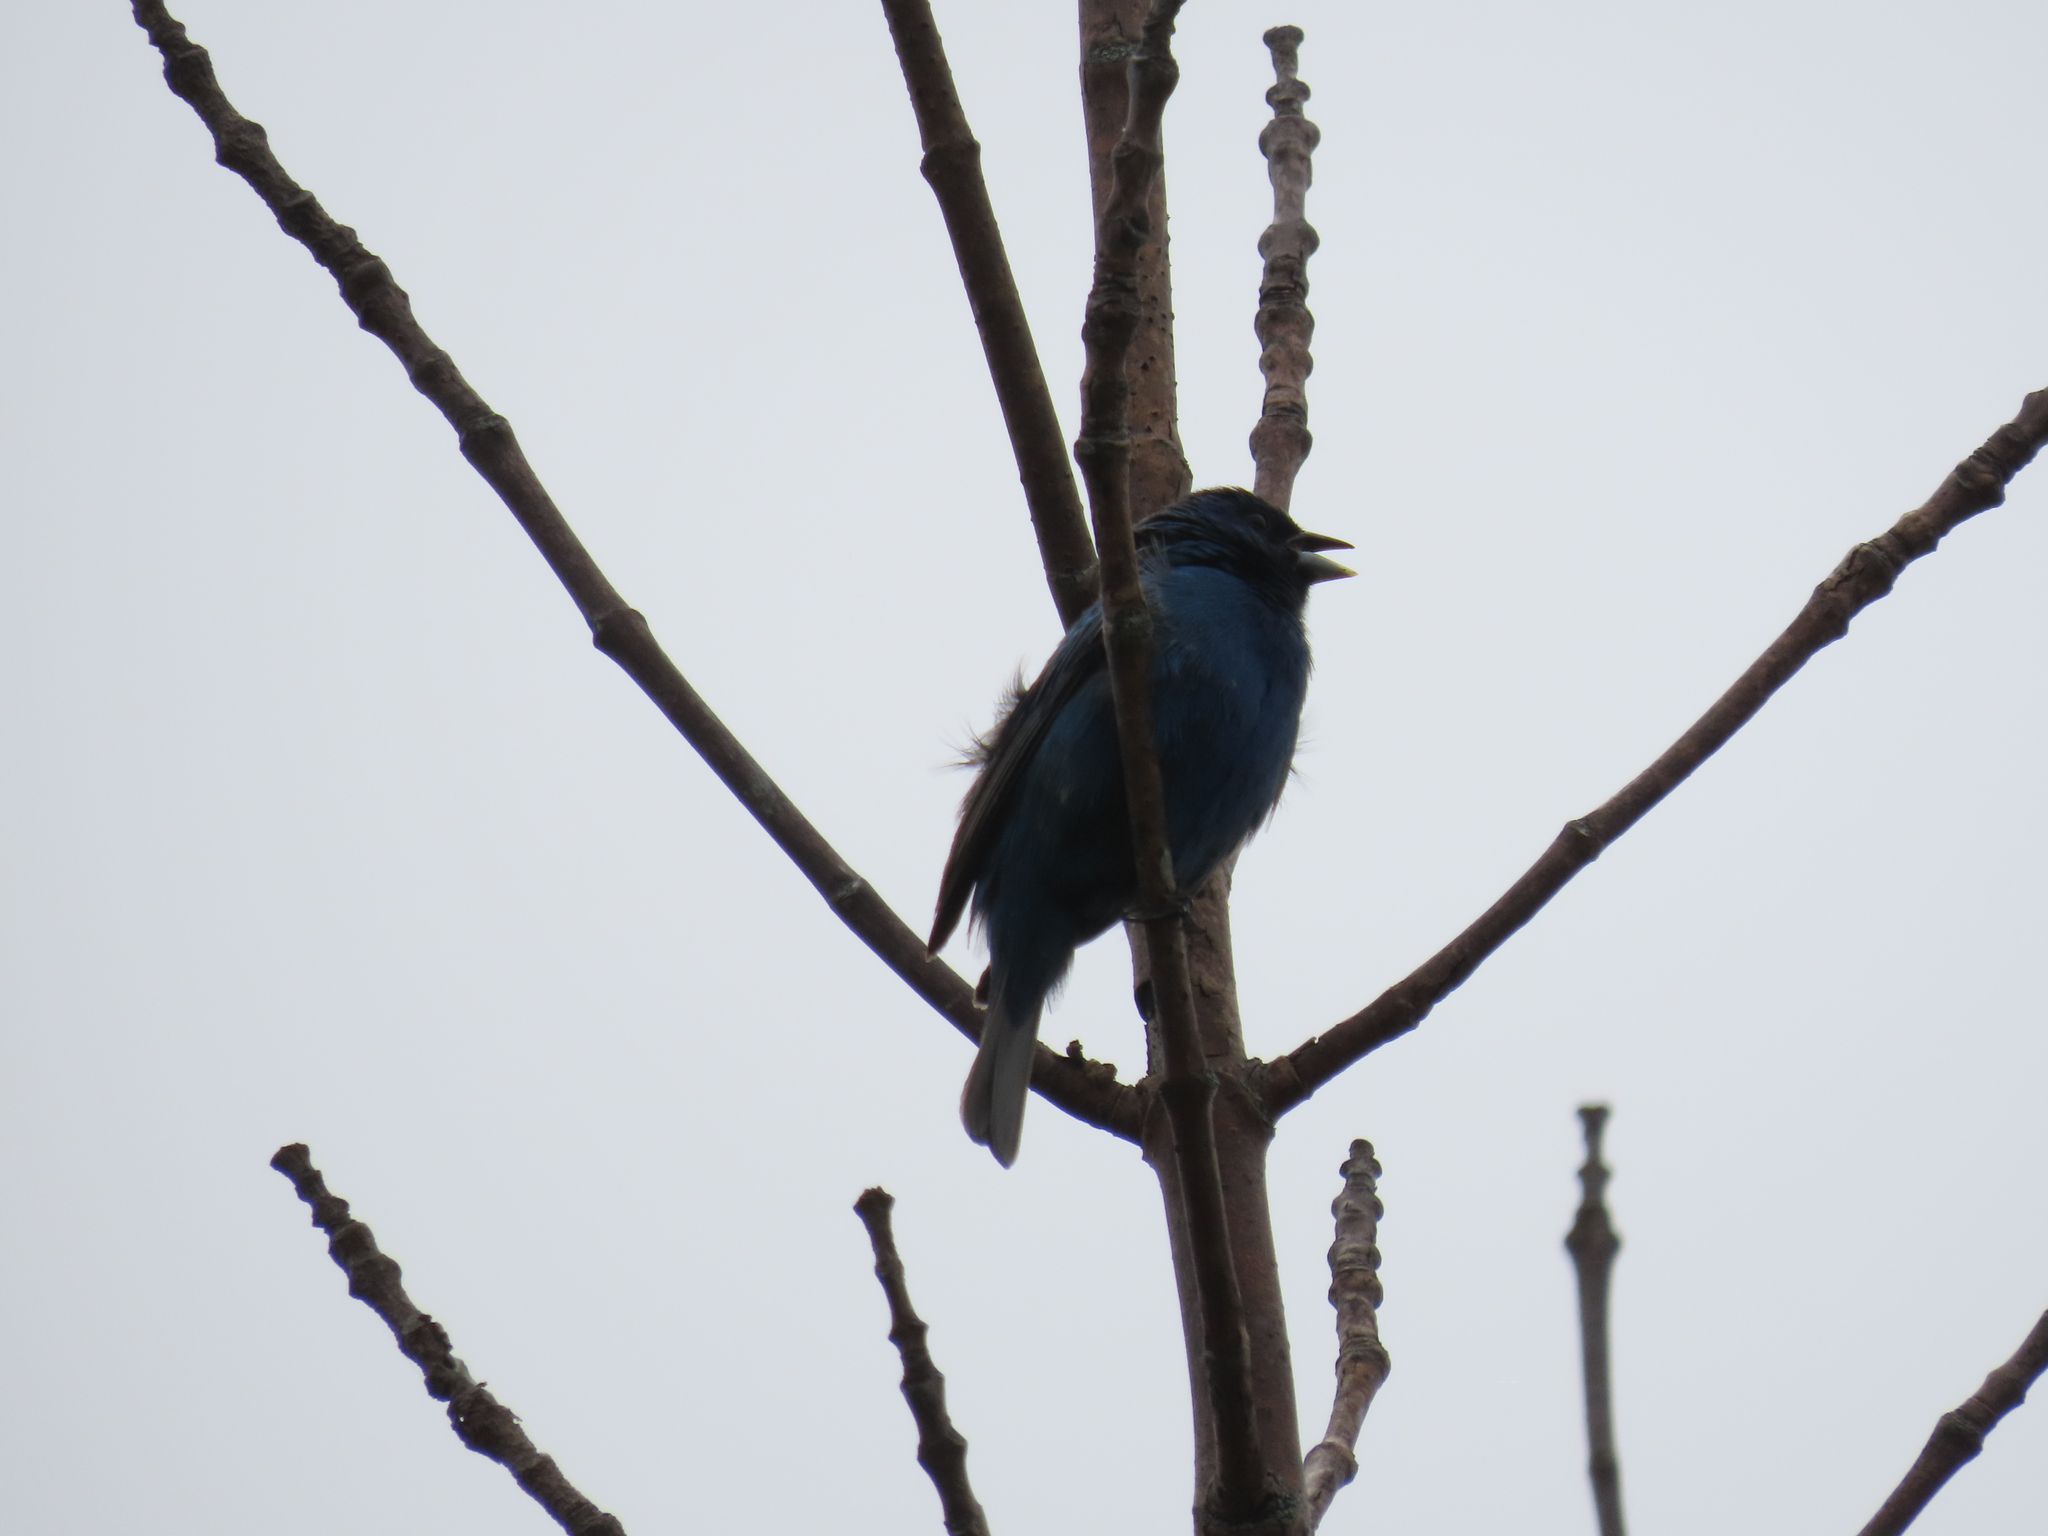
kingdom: Animalia
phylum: Chordata
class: Aves
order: Passeriformes
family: Cardinalidae
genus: Passerina
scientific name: Passerina cyanea
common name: Indigo bunting
